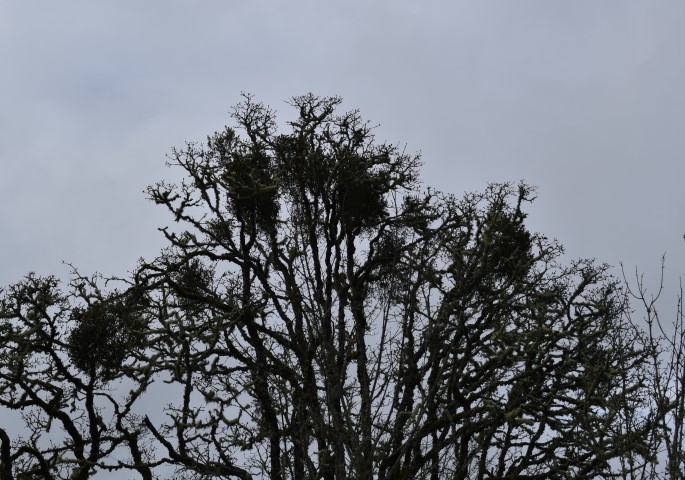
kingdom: Plantae
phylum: Tracheophyta
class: Magnoliopsida
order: Santalales
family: Viscaceae
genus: Phoradendron
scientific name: Phoradendron leucarpum
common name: Pacific mistletoe
